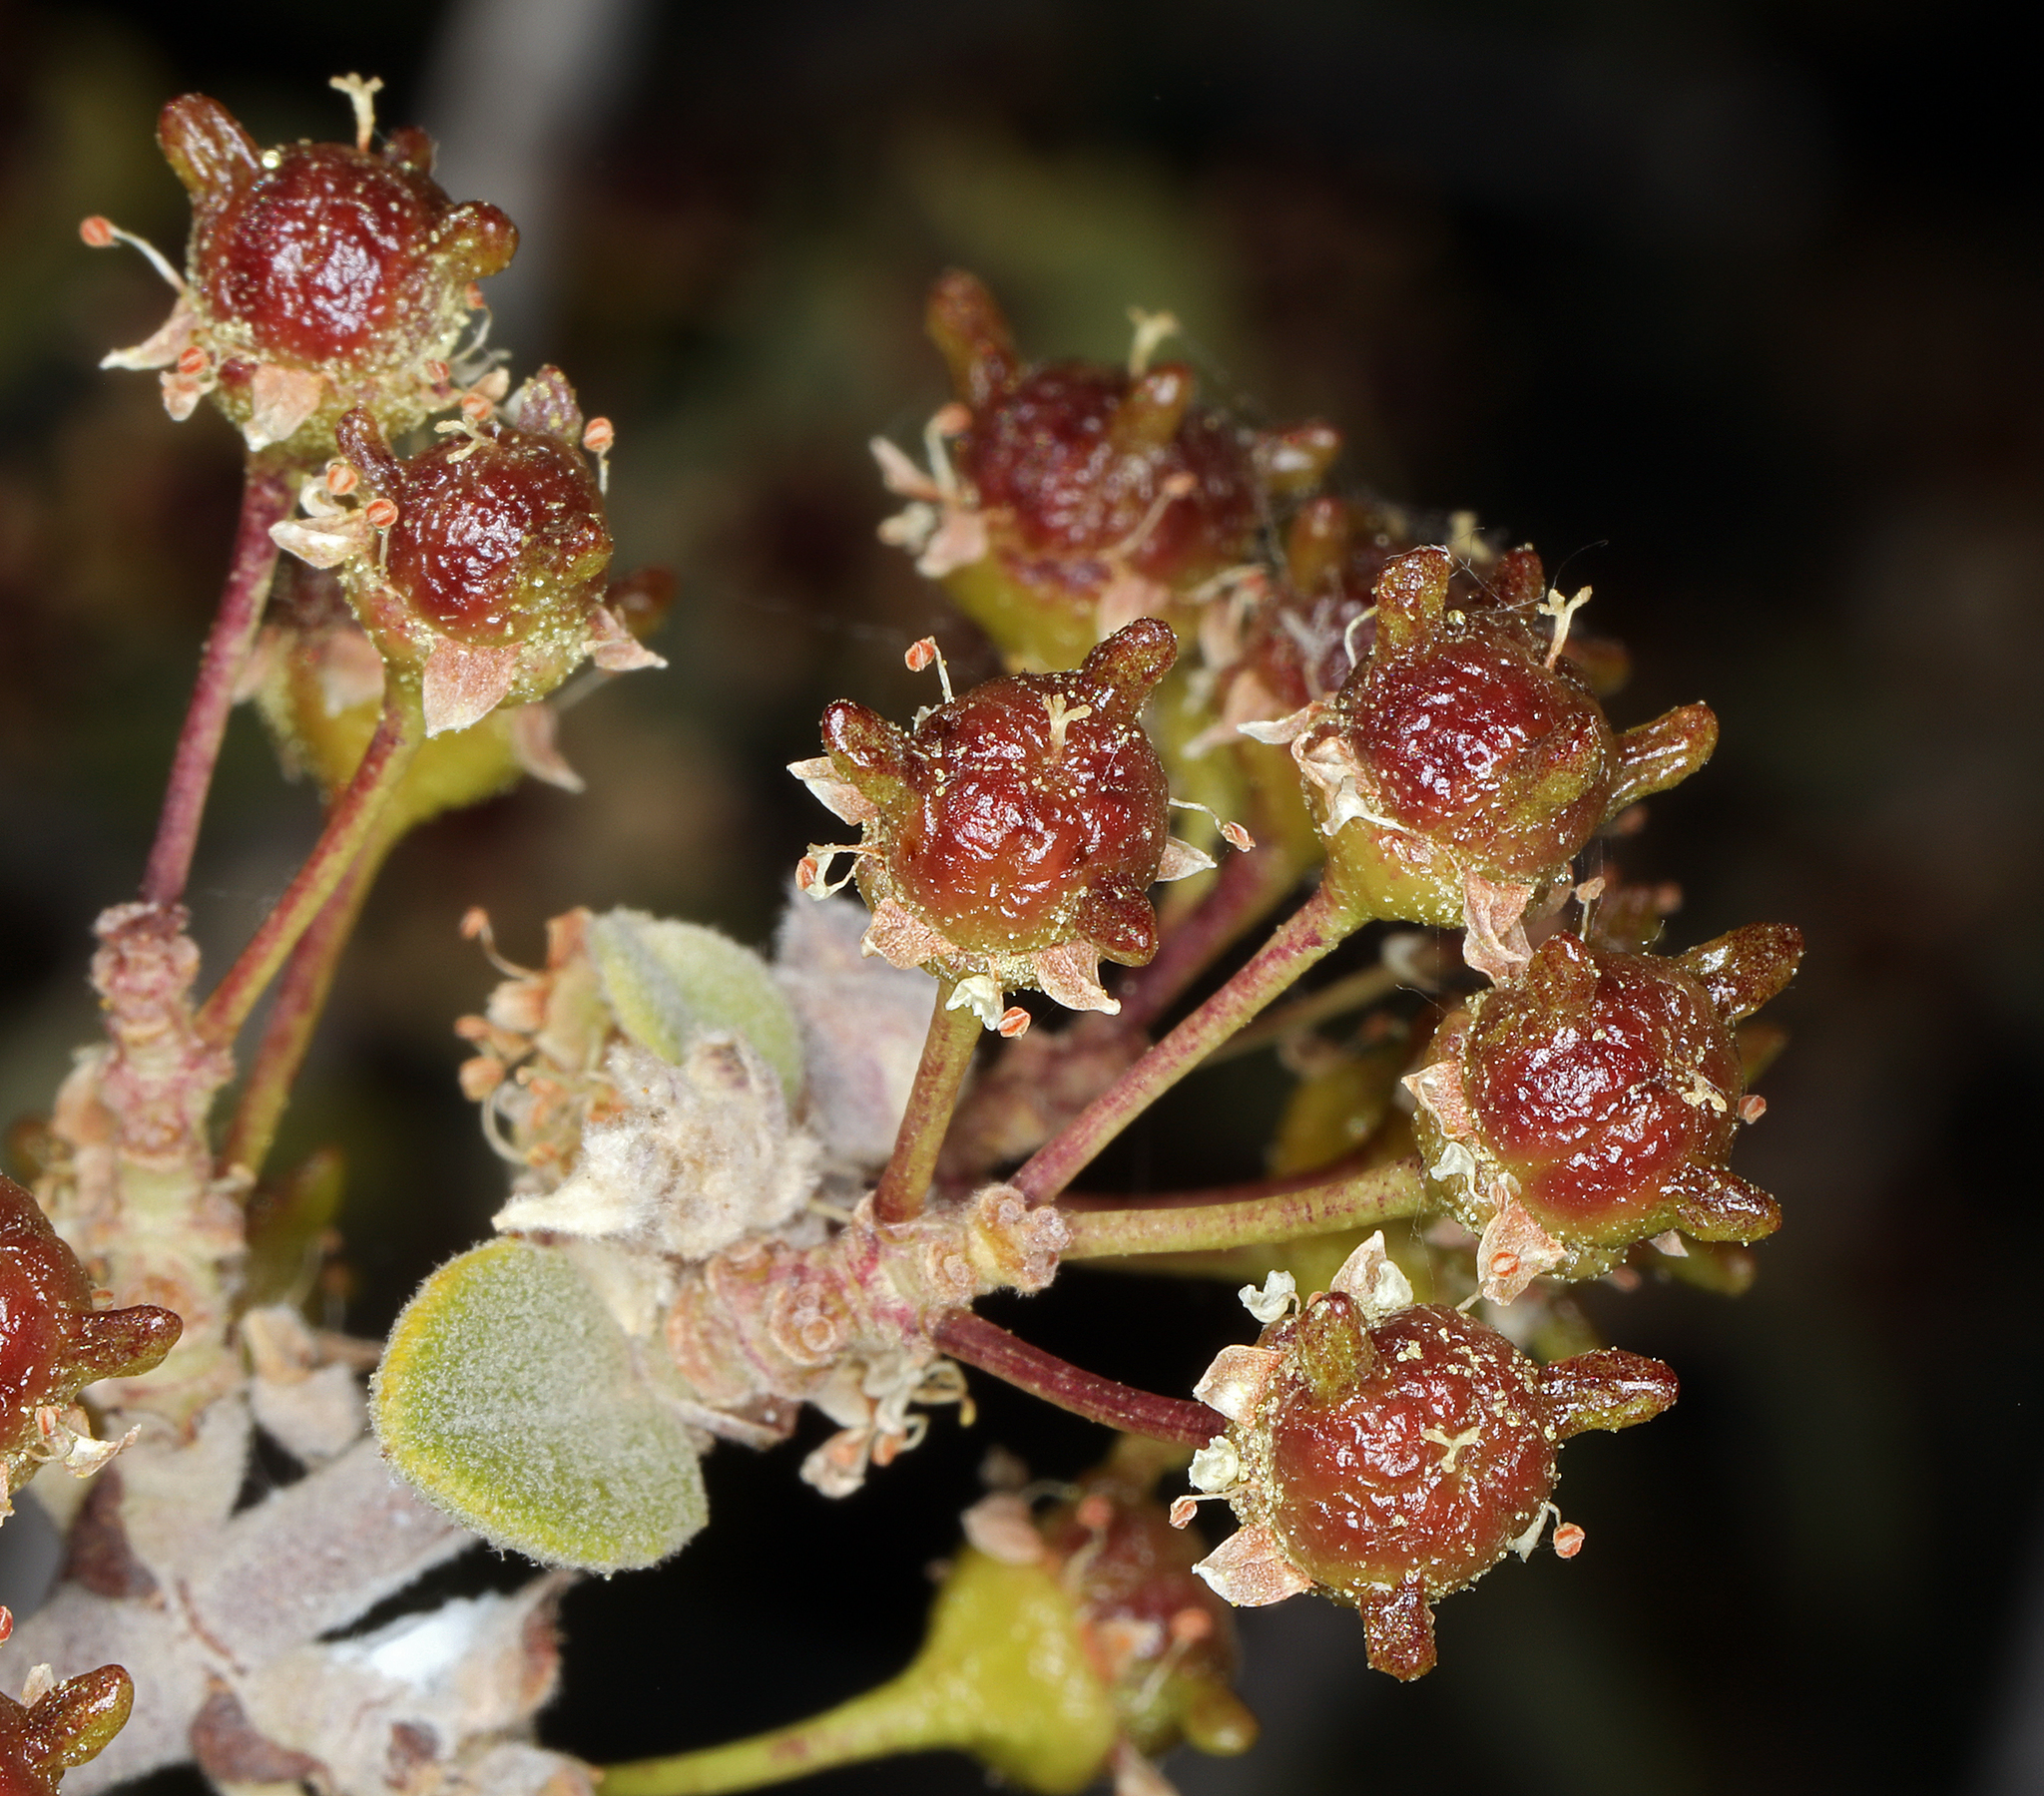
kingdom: Plantae
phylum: Tracheophyta
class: Magnoliopsida
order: Rosales
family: Rhamnaceae
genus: Ceanothus
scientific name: Ceanothus pauciflorus
